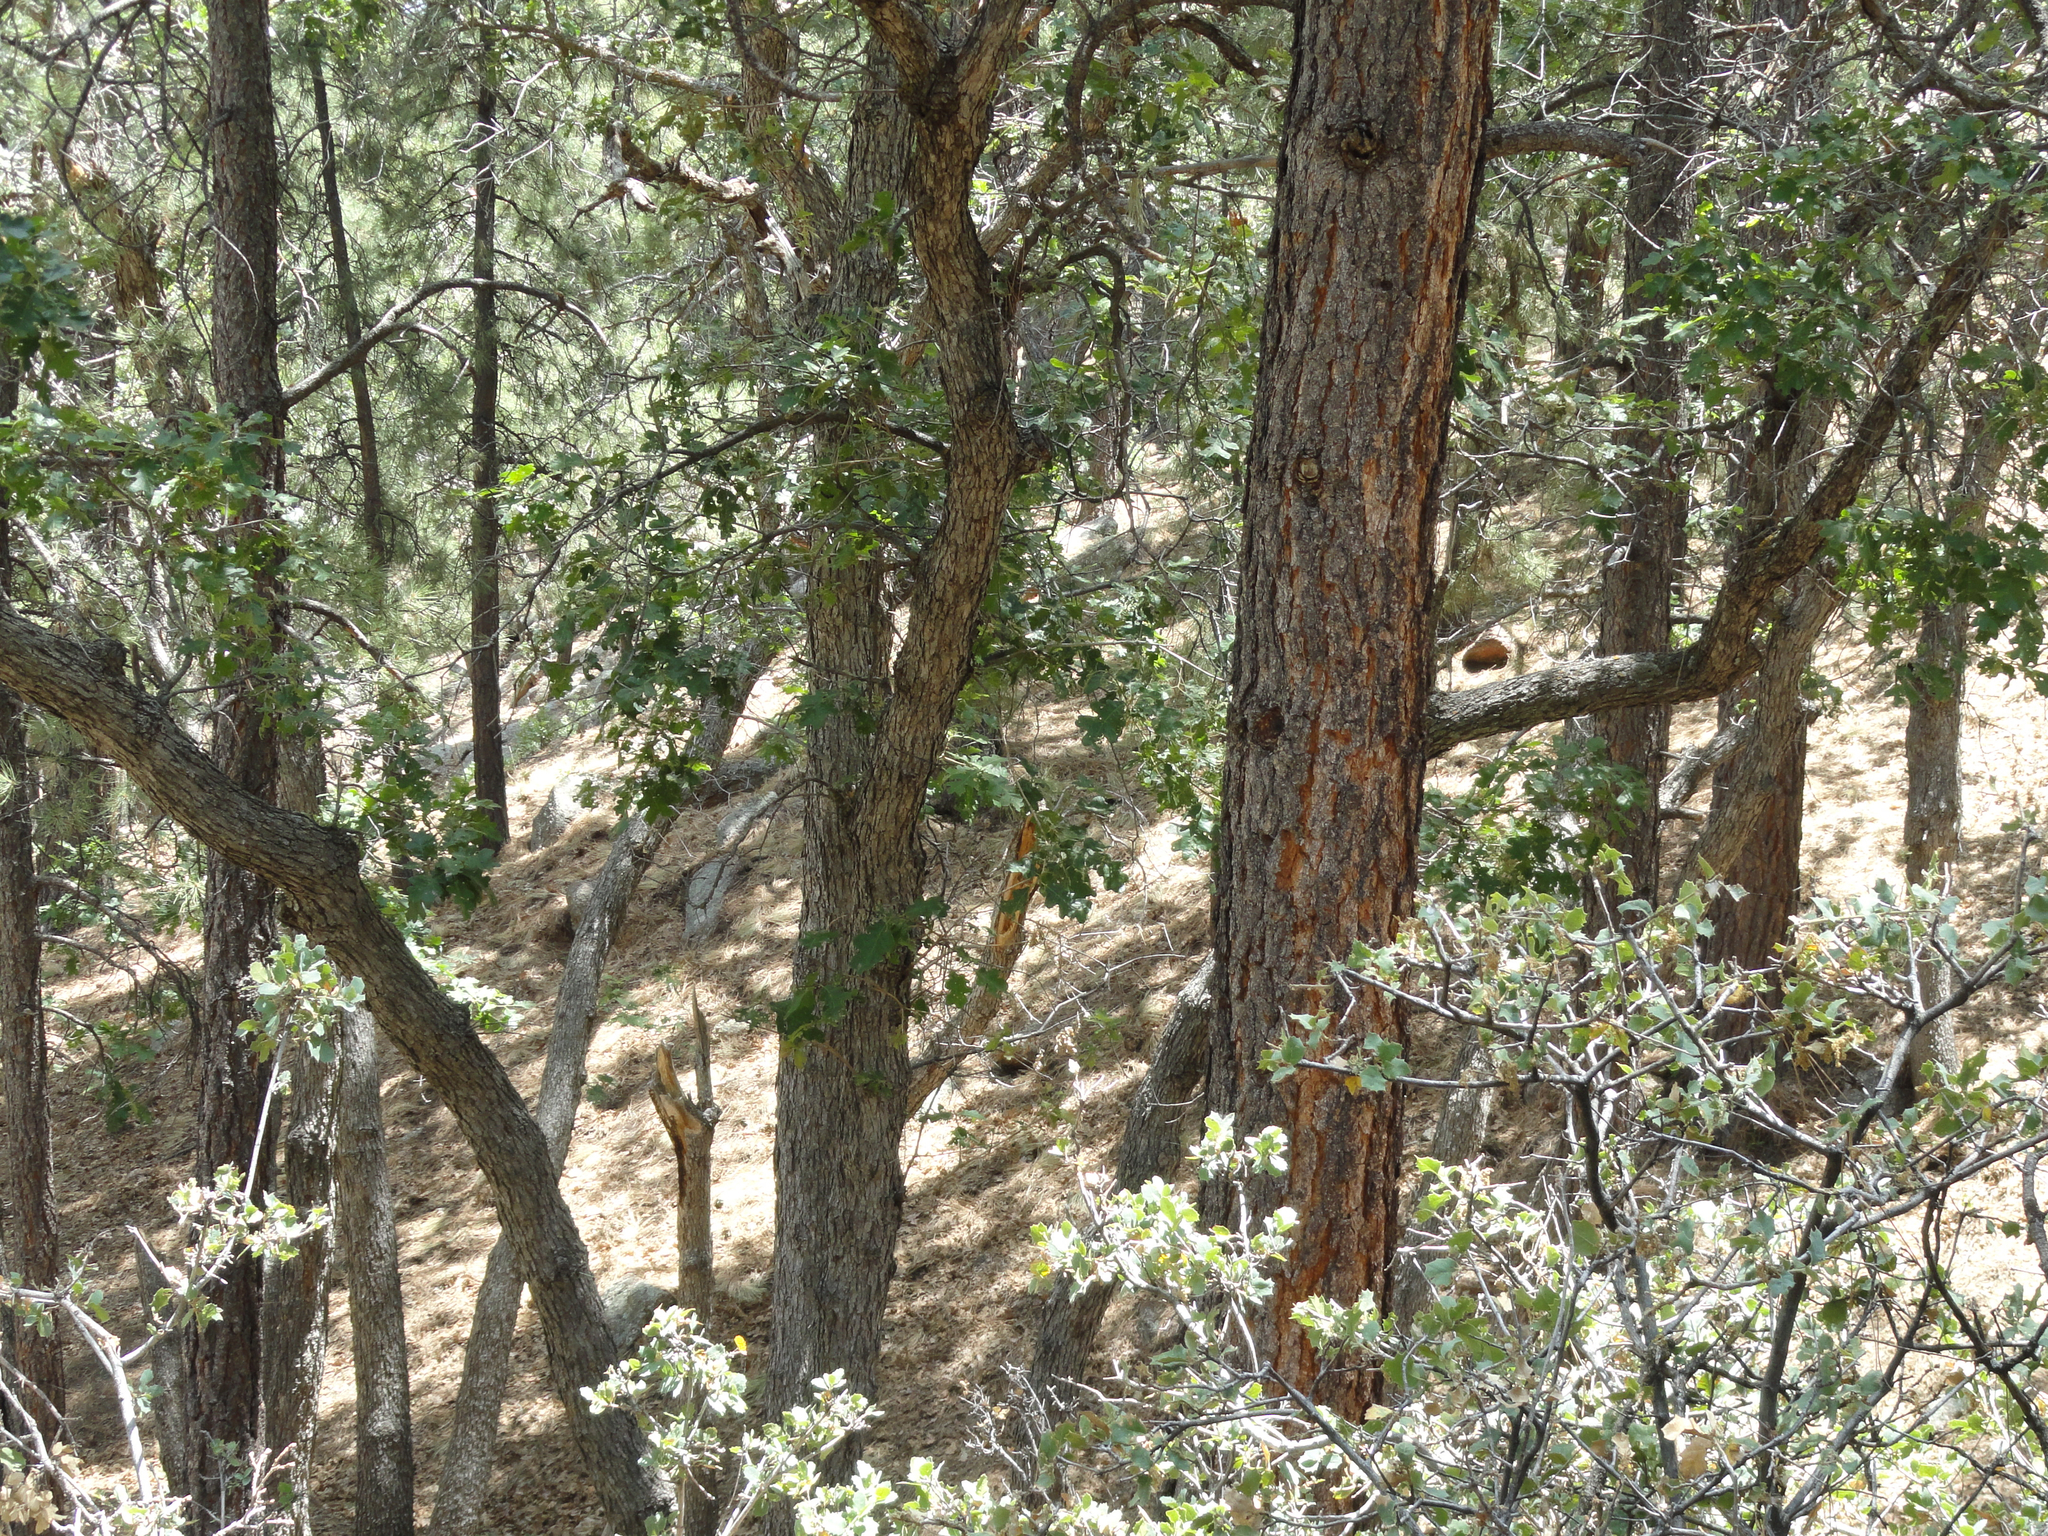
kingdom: Plantae
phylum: Tracheophyta
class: Magnoliopsida
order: Fagales
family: Fagaceae
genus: Quercus
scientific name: Quercus gambelii
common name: Gambel oak
